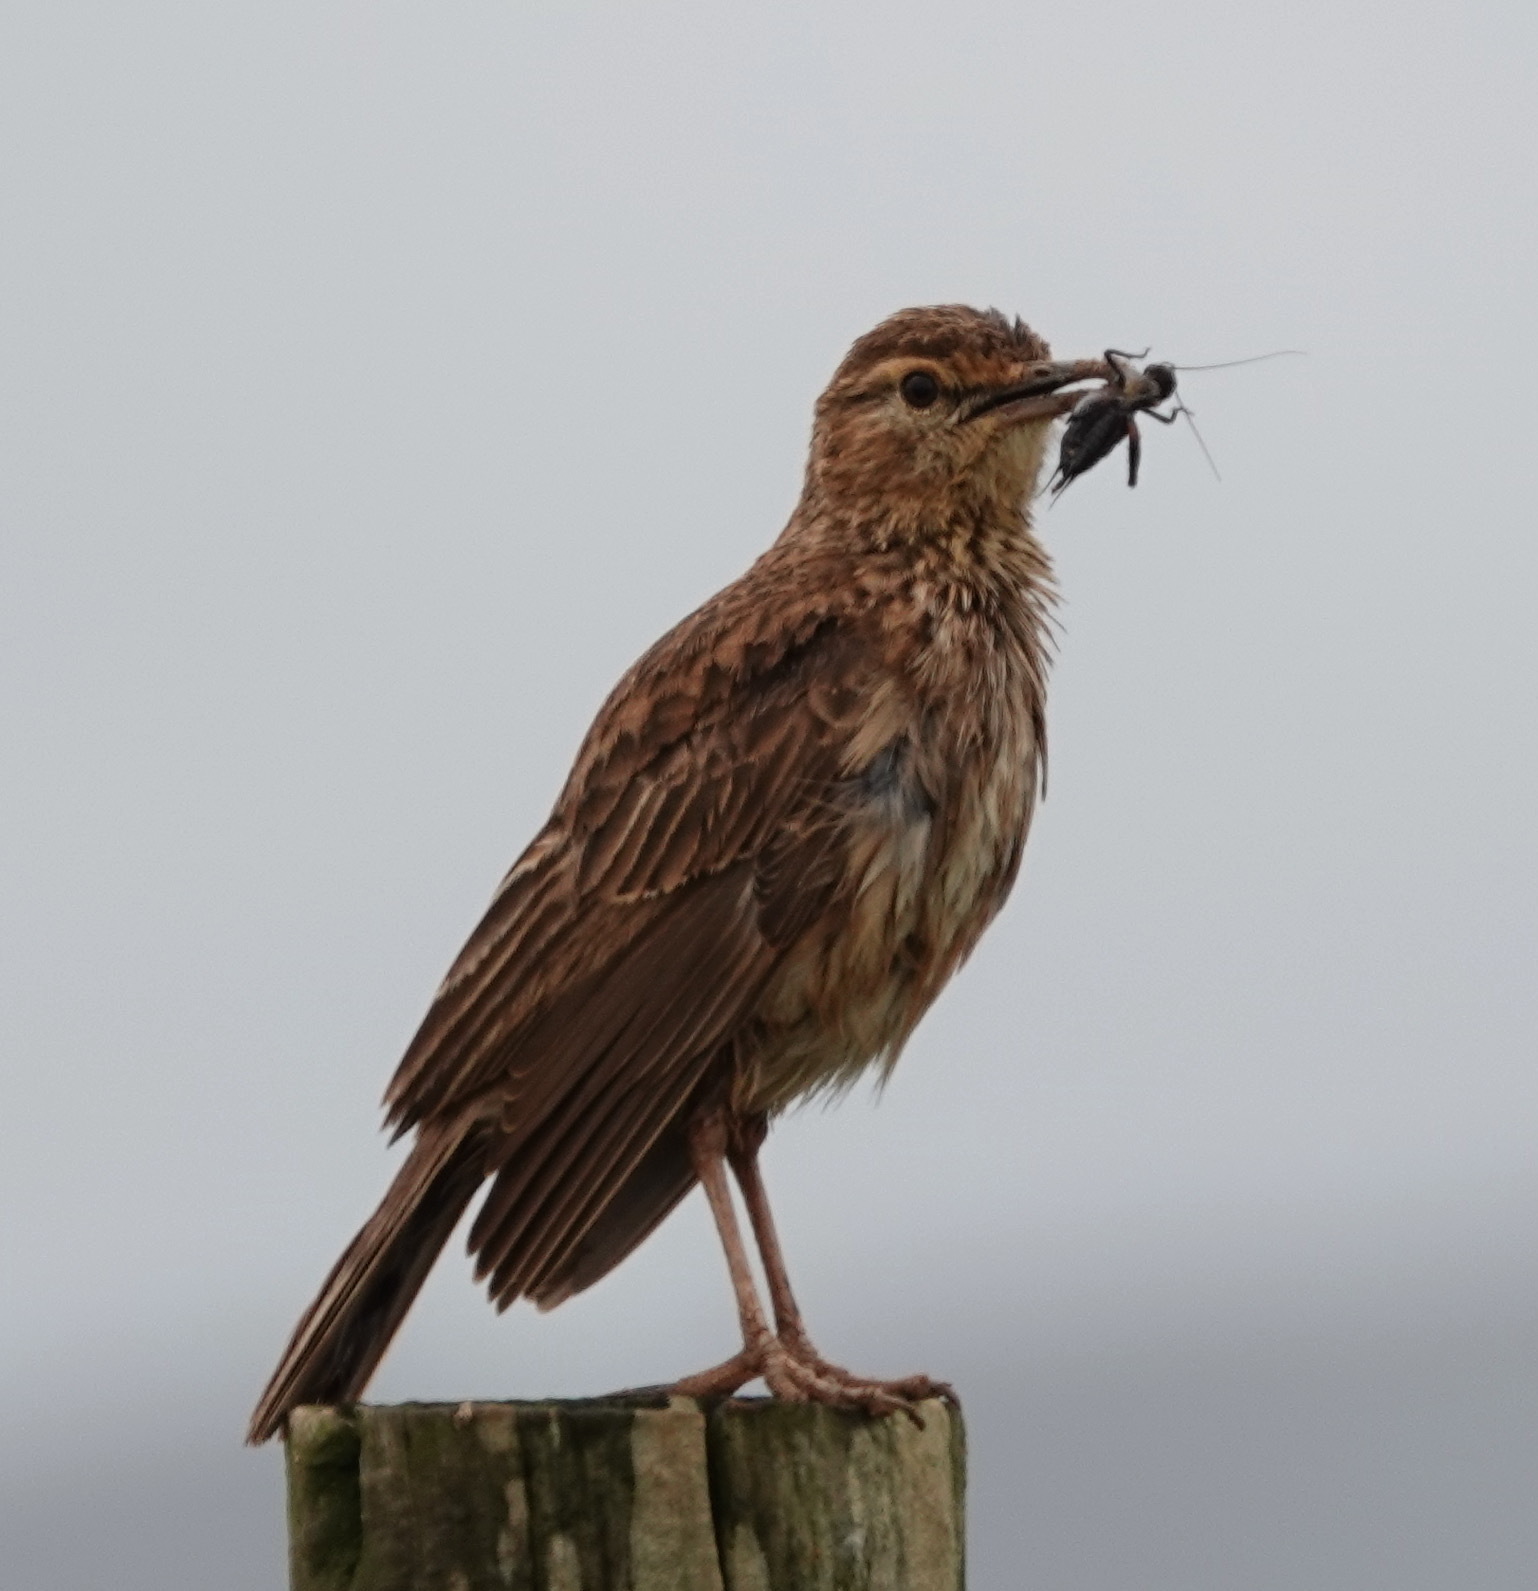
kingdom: Animalia
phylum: Chordata
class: Aves
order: Passeriformes
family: Alaudidae
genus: Certhilauda
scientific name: Certhilauda curvirostris
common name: Cape long-billed lark
